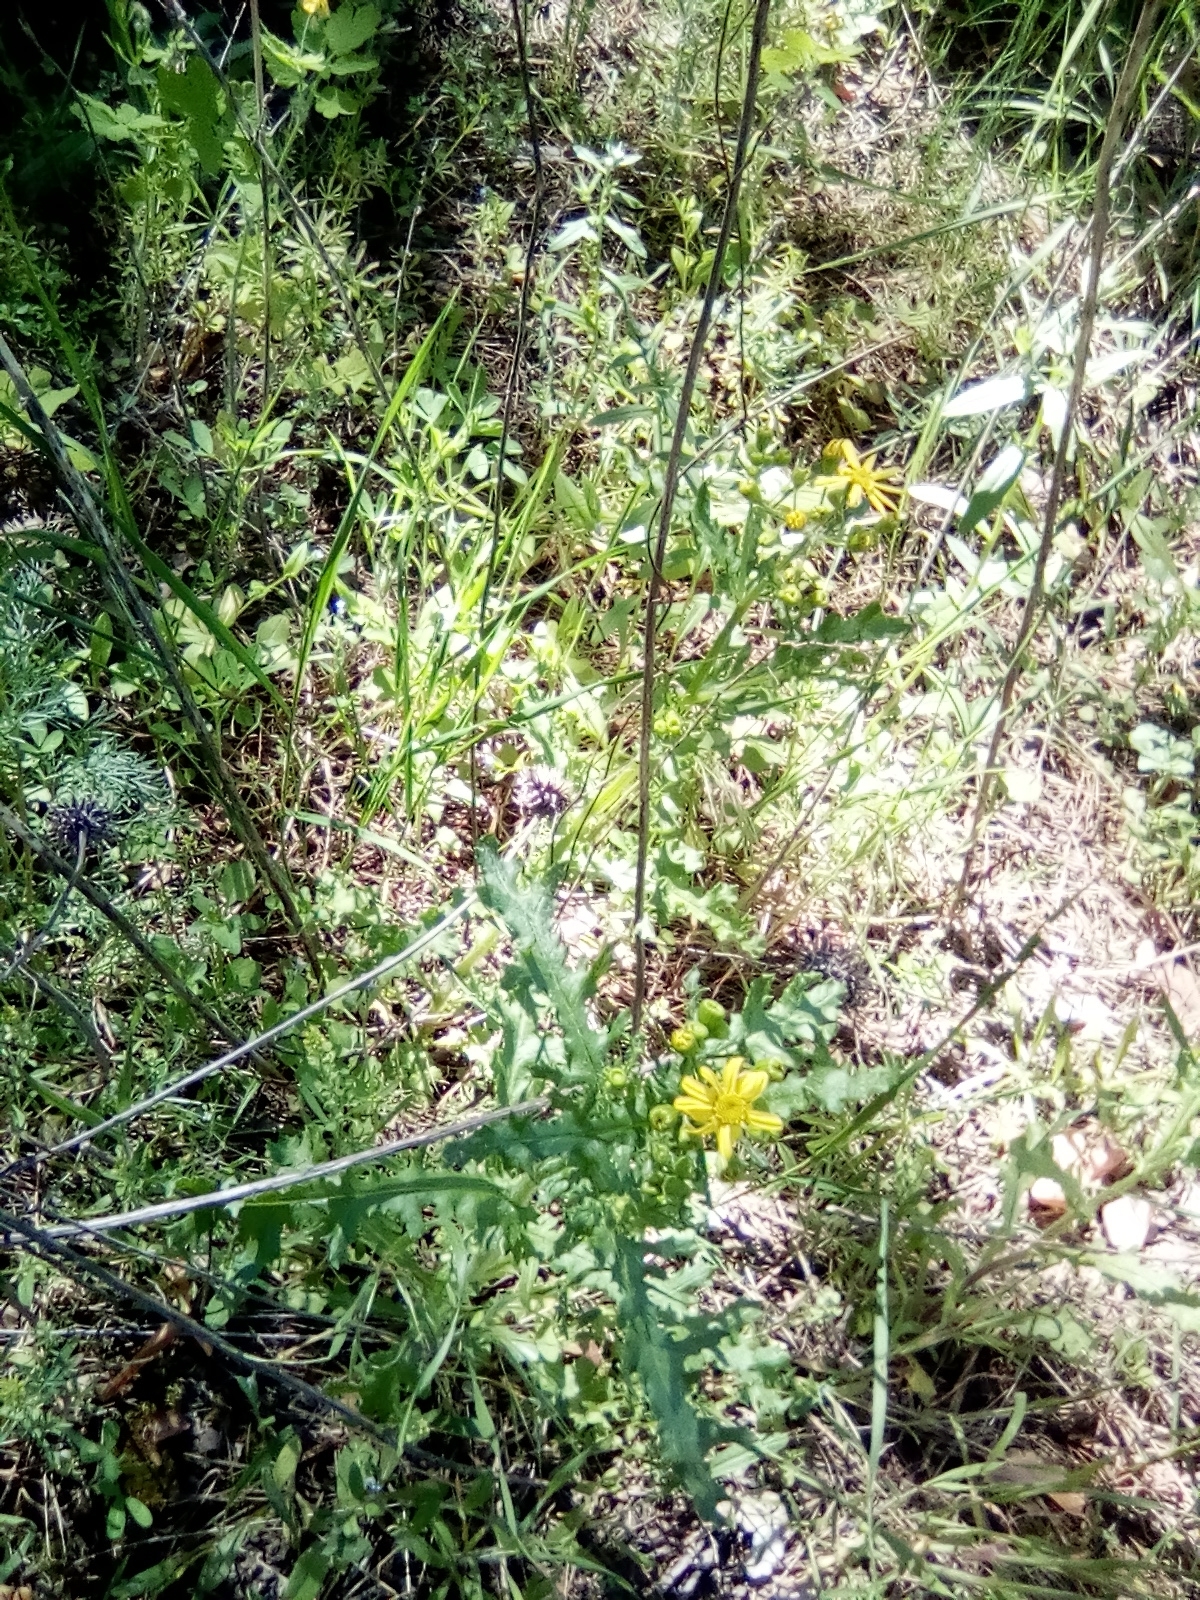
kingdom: Plantae
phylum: Tracheophyta
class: Magnoliopsida
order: Asterales
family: Asteraceae
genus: Senecio
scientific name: Senecio vernalis
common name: Eastern groundsel
